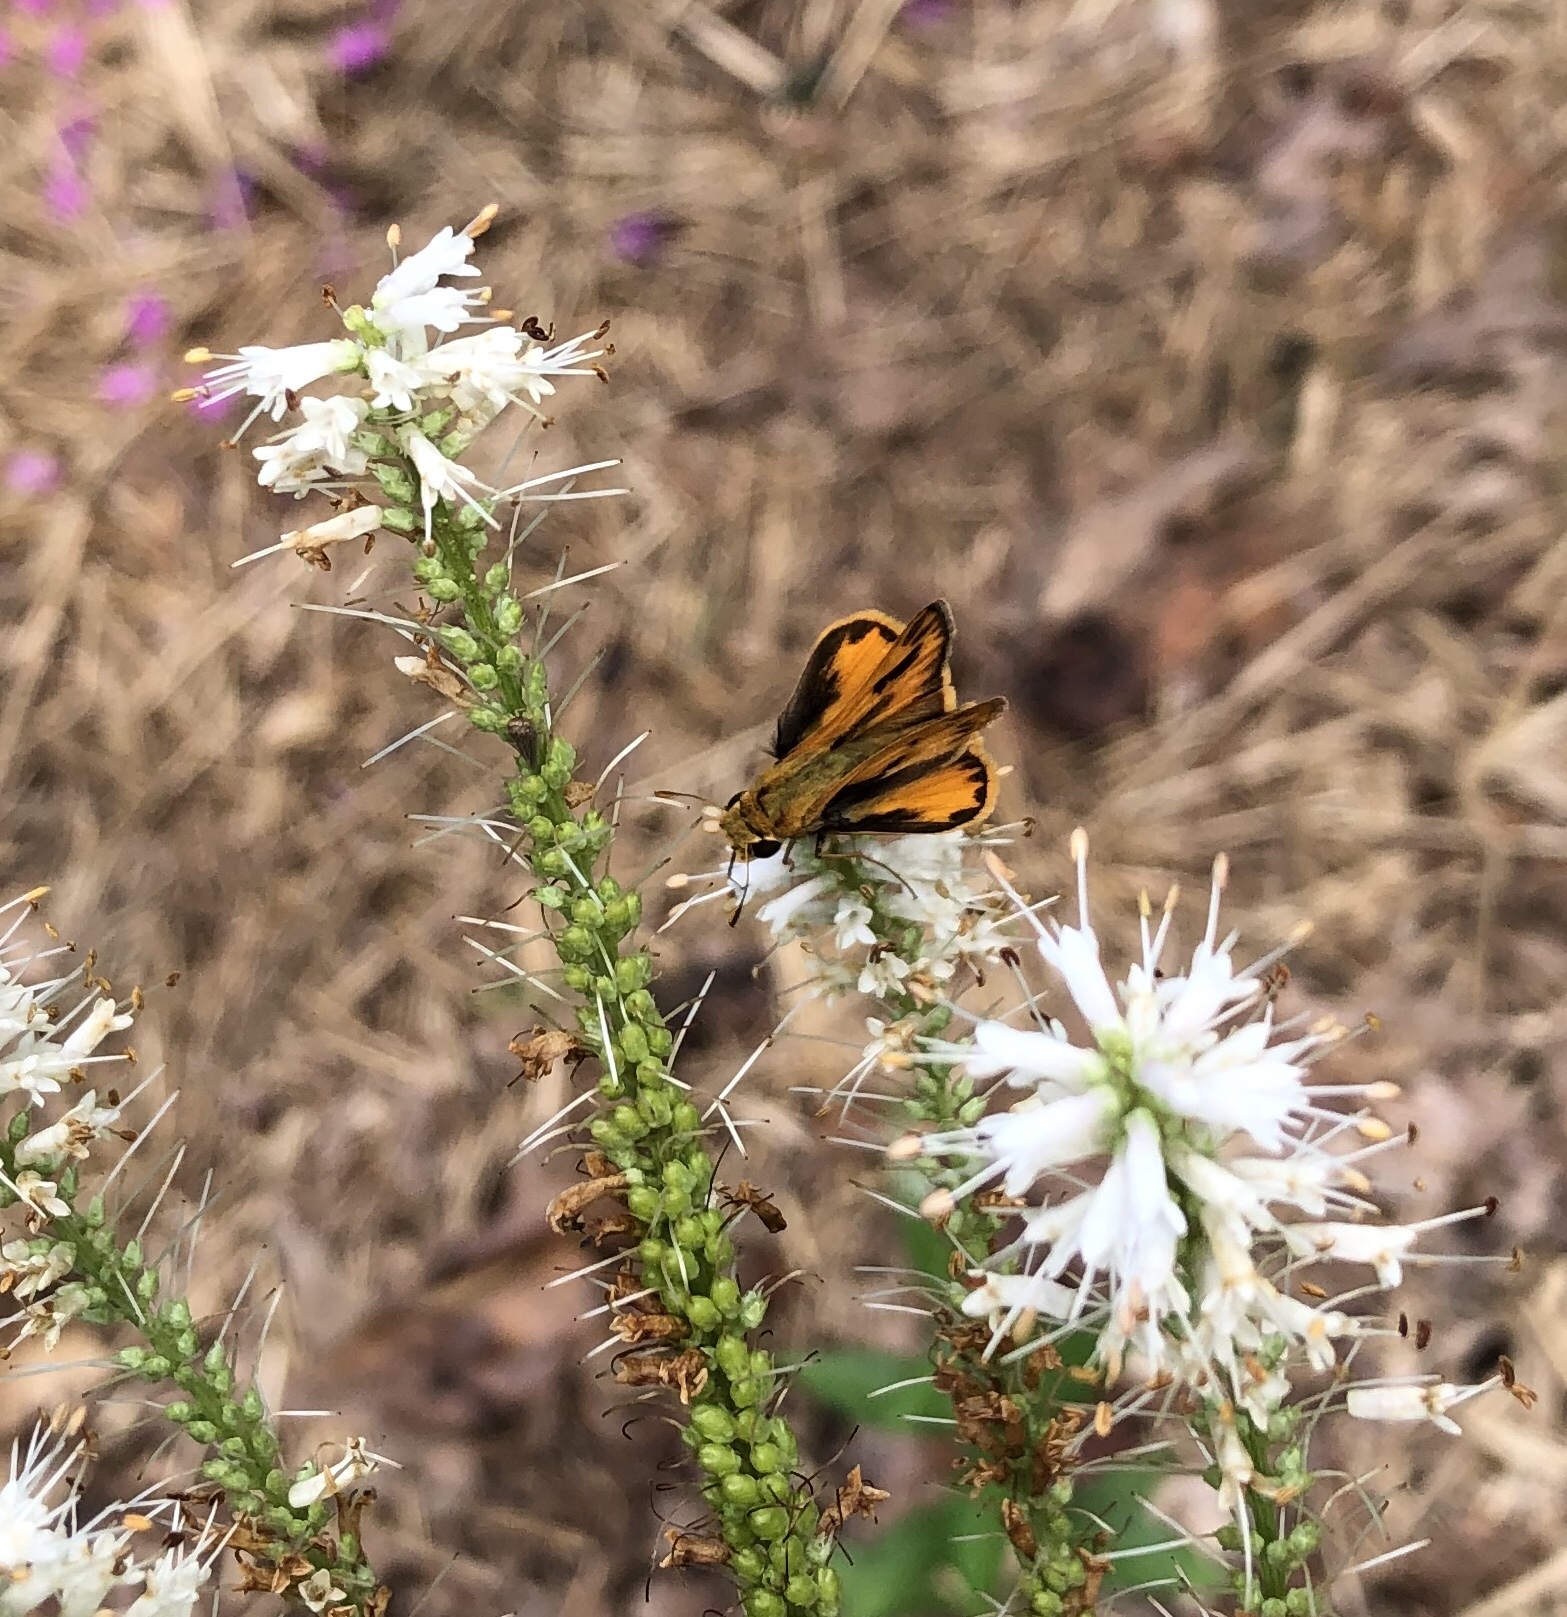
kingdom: Animalia
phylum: Arthropoda
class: Insecta
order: Lepidoptera
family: Hesperiidae
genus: Hylephila
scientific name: Hylephila phyleus
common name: Fiery skipper
